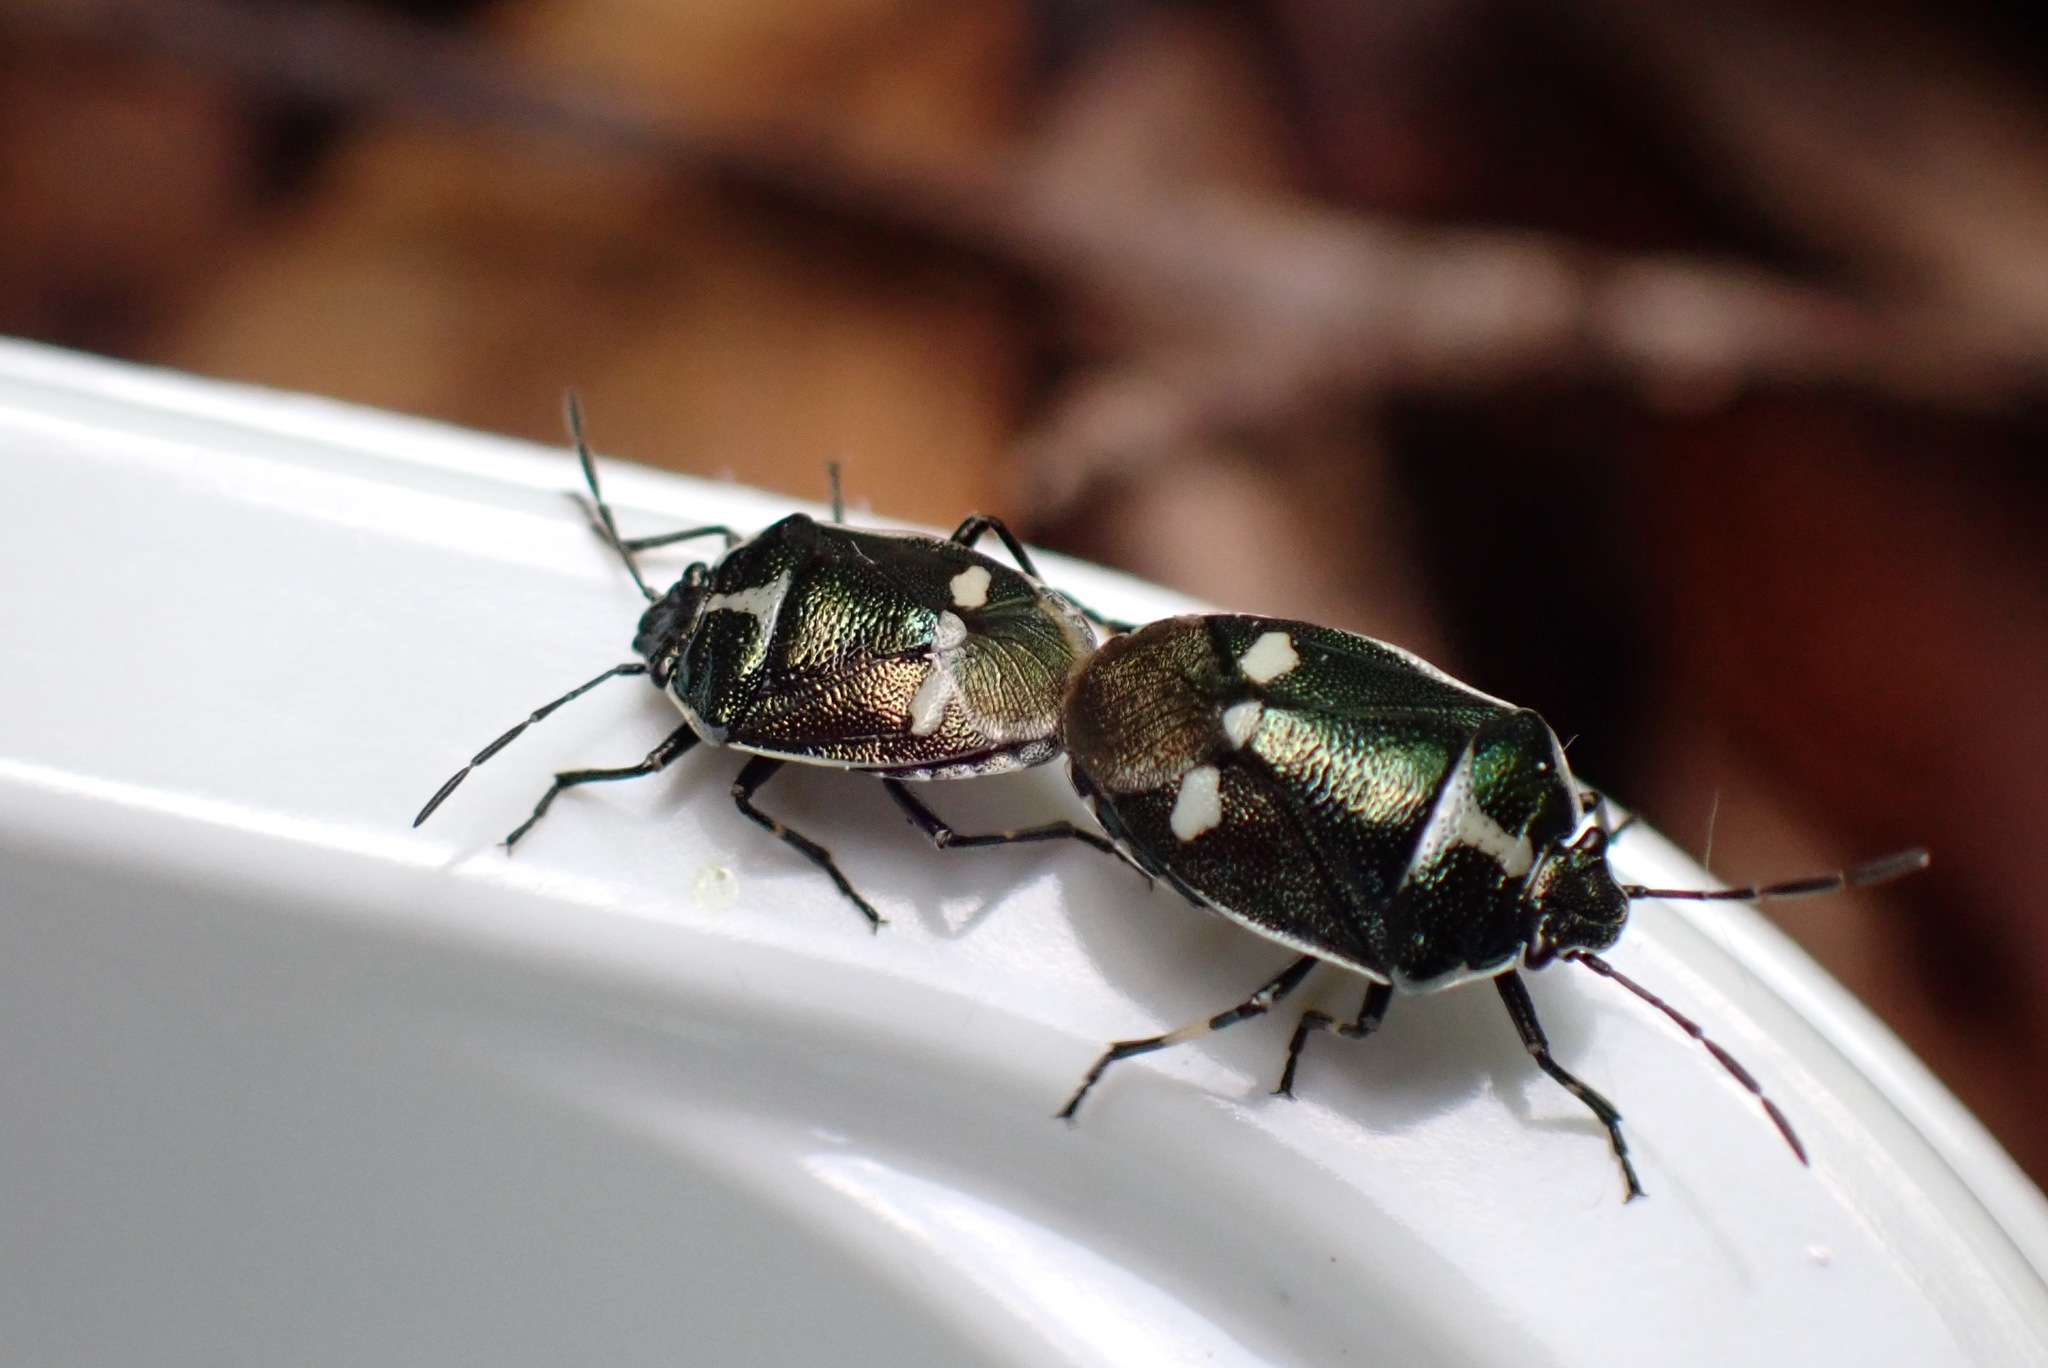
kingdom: Animalia
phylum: Arthropoda
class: Insecta
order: Hemiptera
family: Pentatomidae
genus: Eurydema
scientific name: Eurydema oleracea
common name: Cabbage bug
